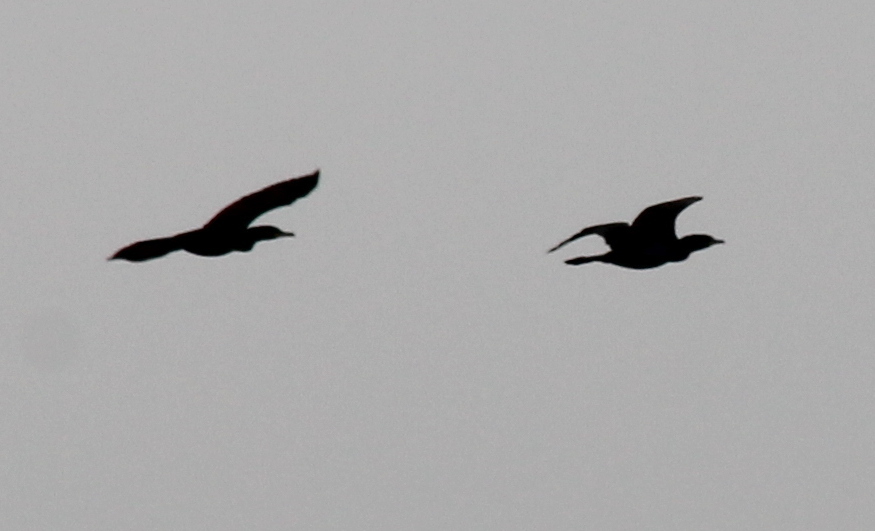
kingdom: Animalia
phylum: Chordata
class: Aves
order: Suliformes
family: Phalacrocoracidae
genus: Phalacrocorax
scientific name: Phalacrocorax brasilianus
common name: Neotropic cormorant
